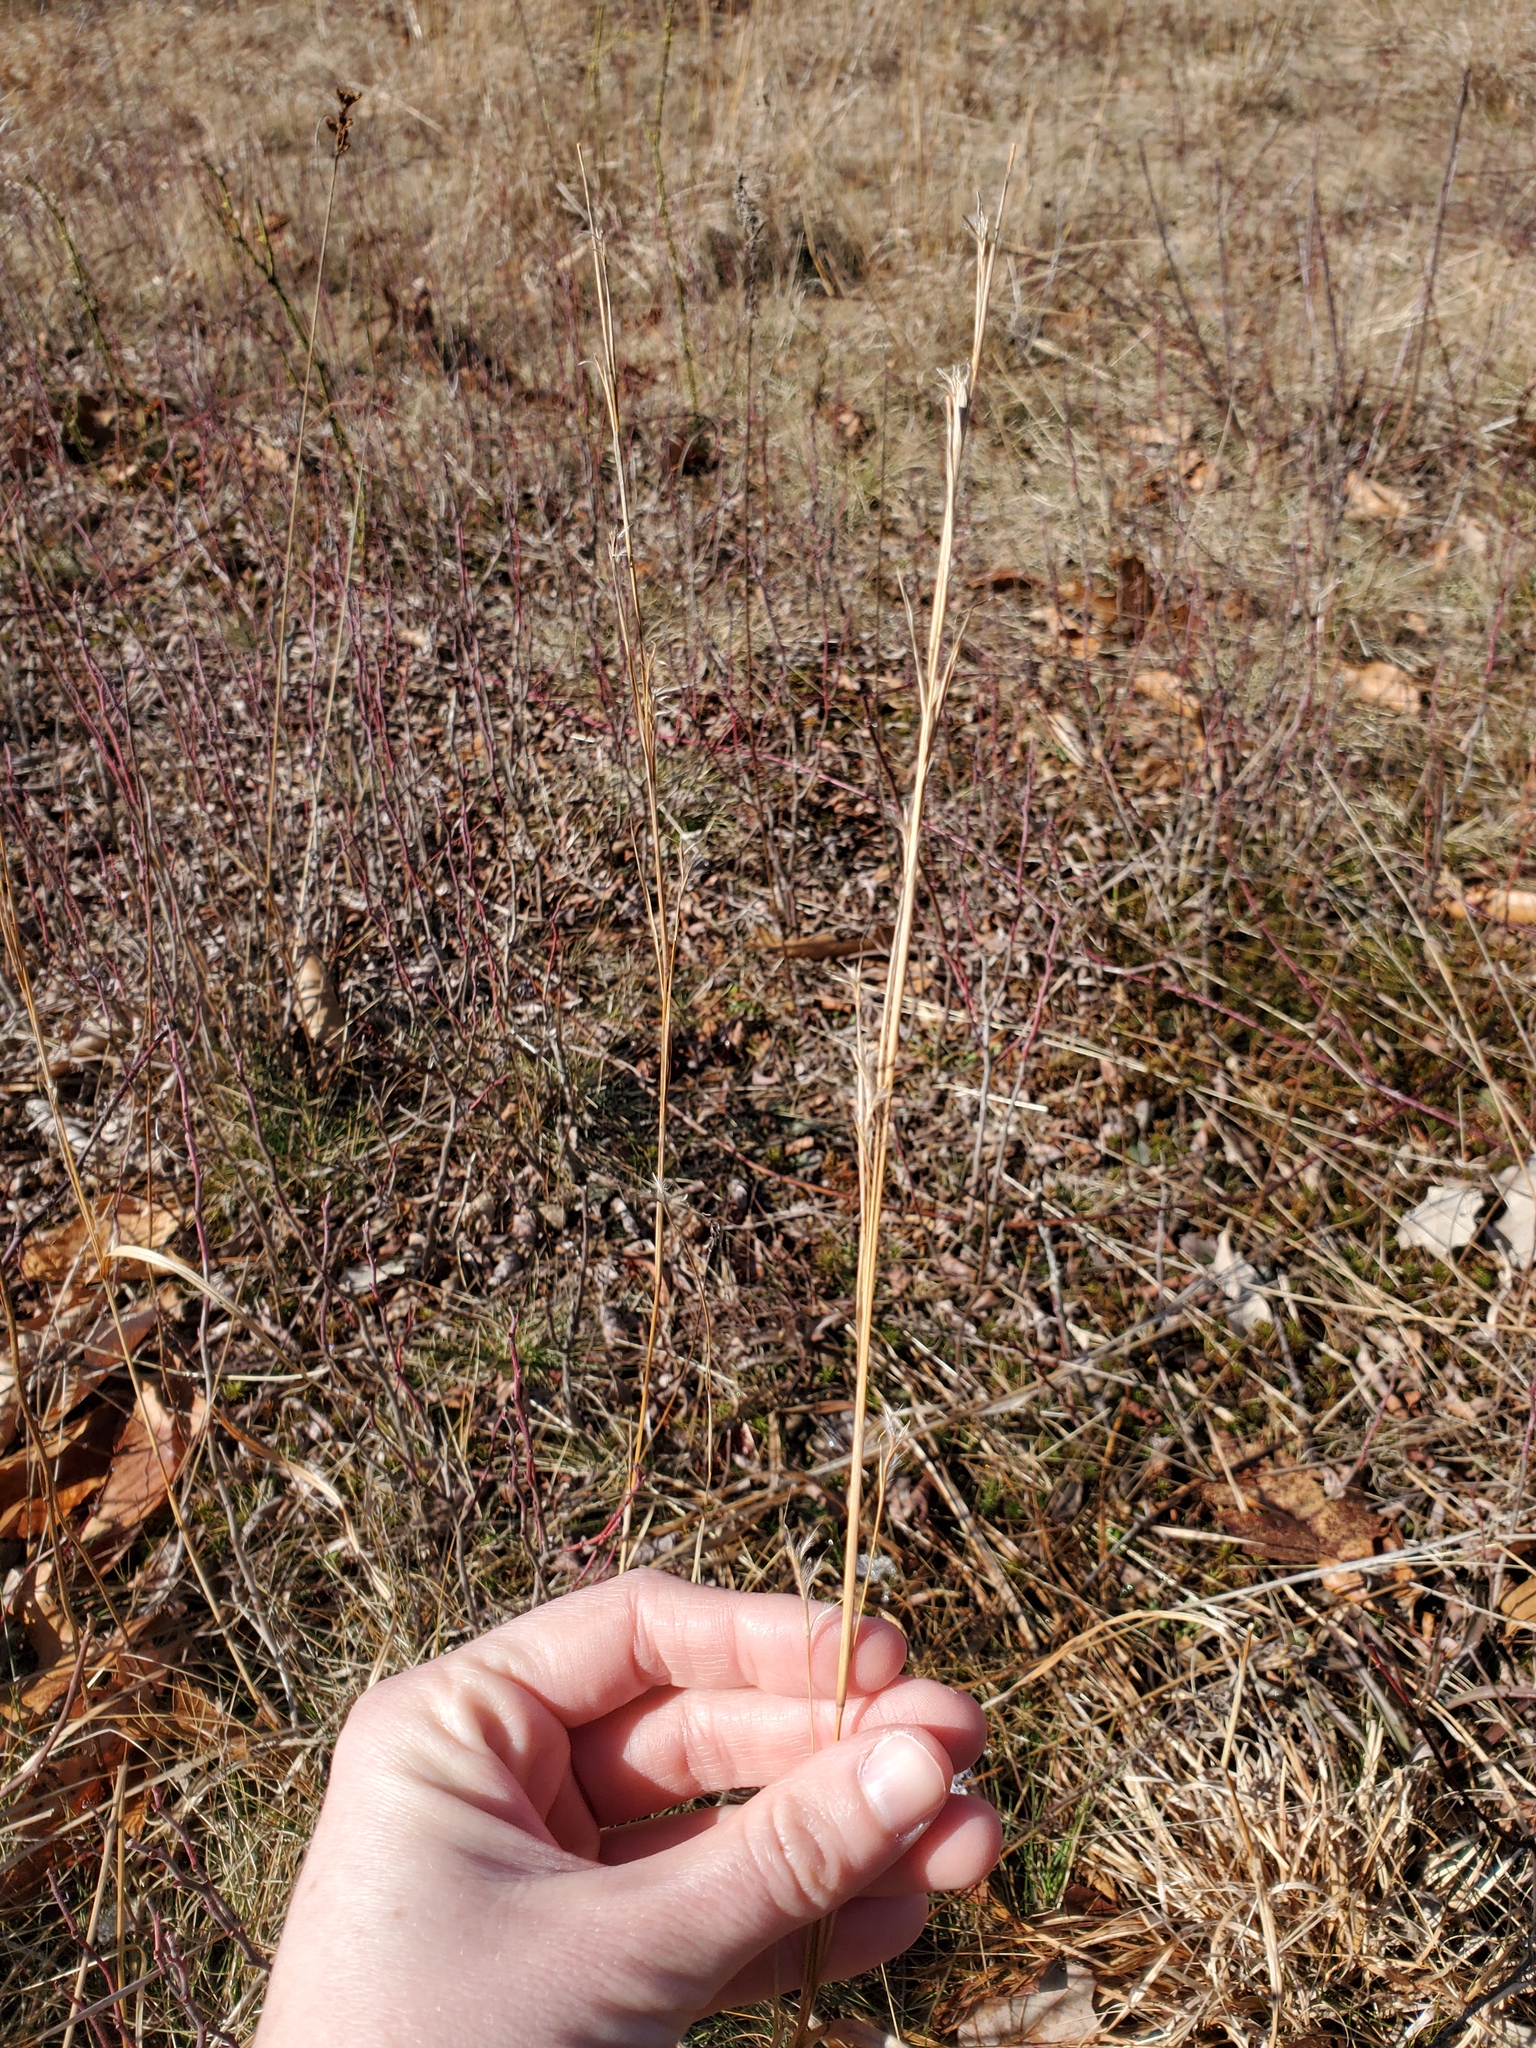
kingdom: Plantae
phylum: Tracheophyta
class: Liliopsida
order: Poales
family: Poaceae
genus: Schizachyrium
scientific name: Schizachyrium scoparium
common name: Little bluestem
